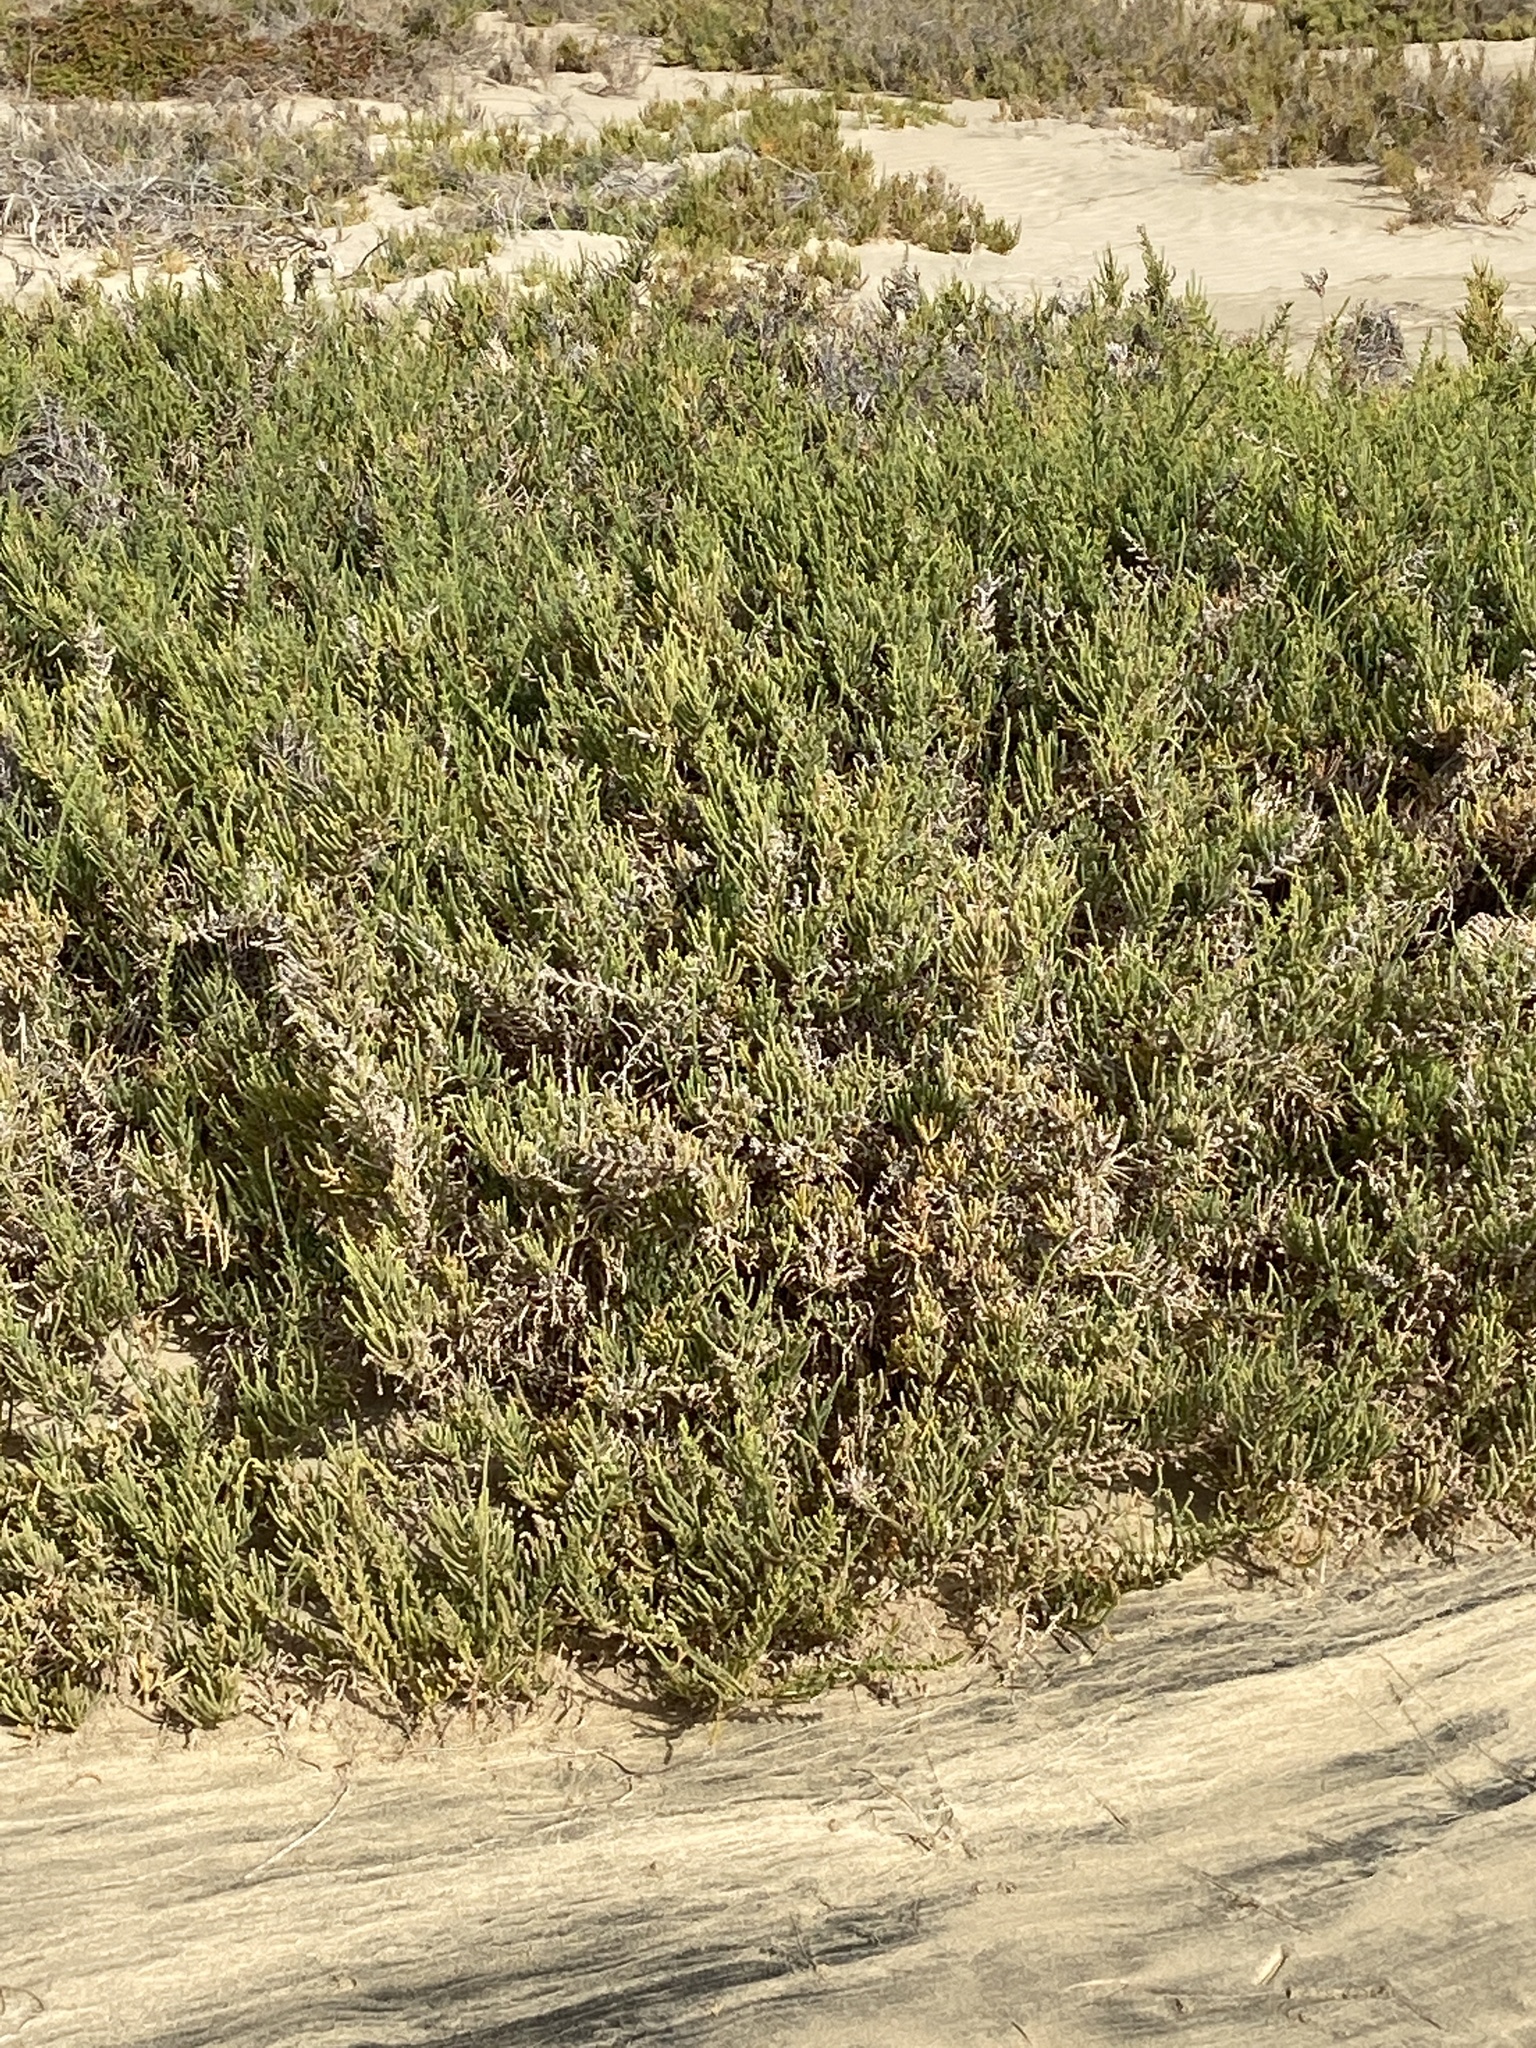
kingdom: Plantae
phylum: Tracheophyta
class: Magnoliopsida
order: Caryophyllales
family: Amaranthaceae
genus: Arthrocaulon
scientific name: Arthrocaulon macrostachyum
